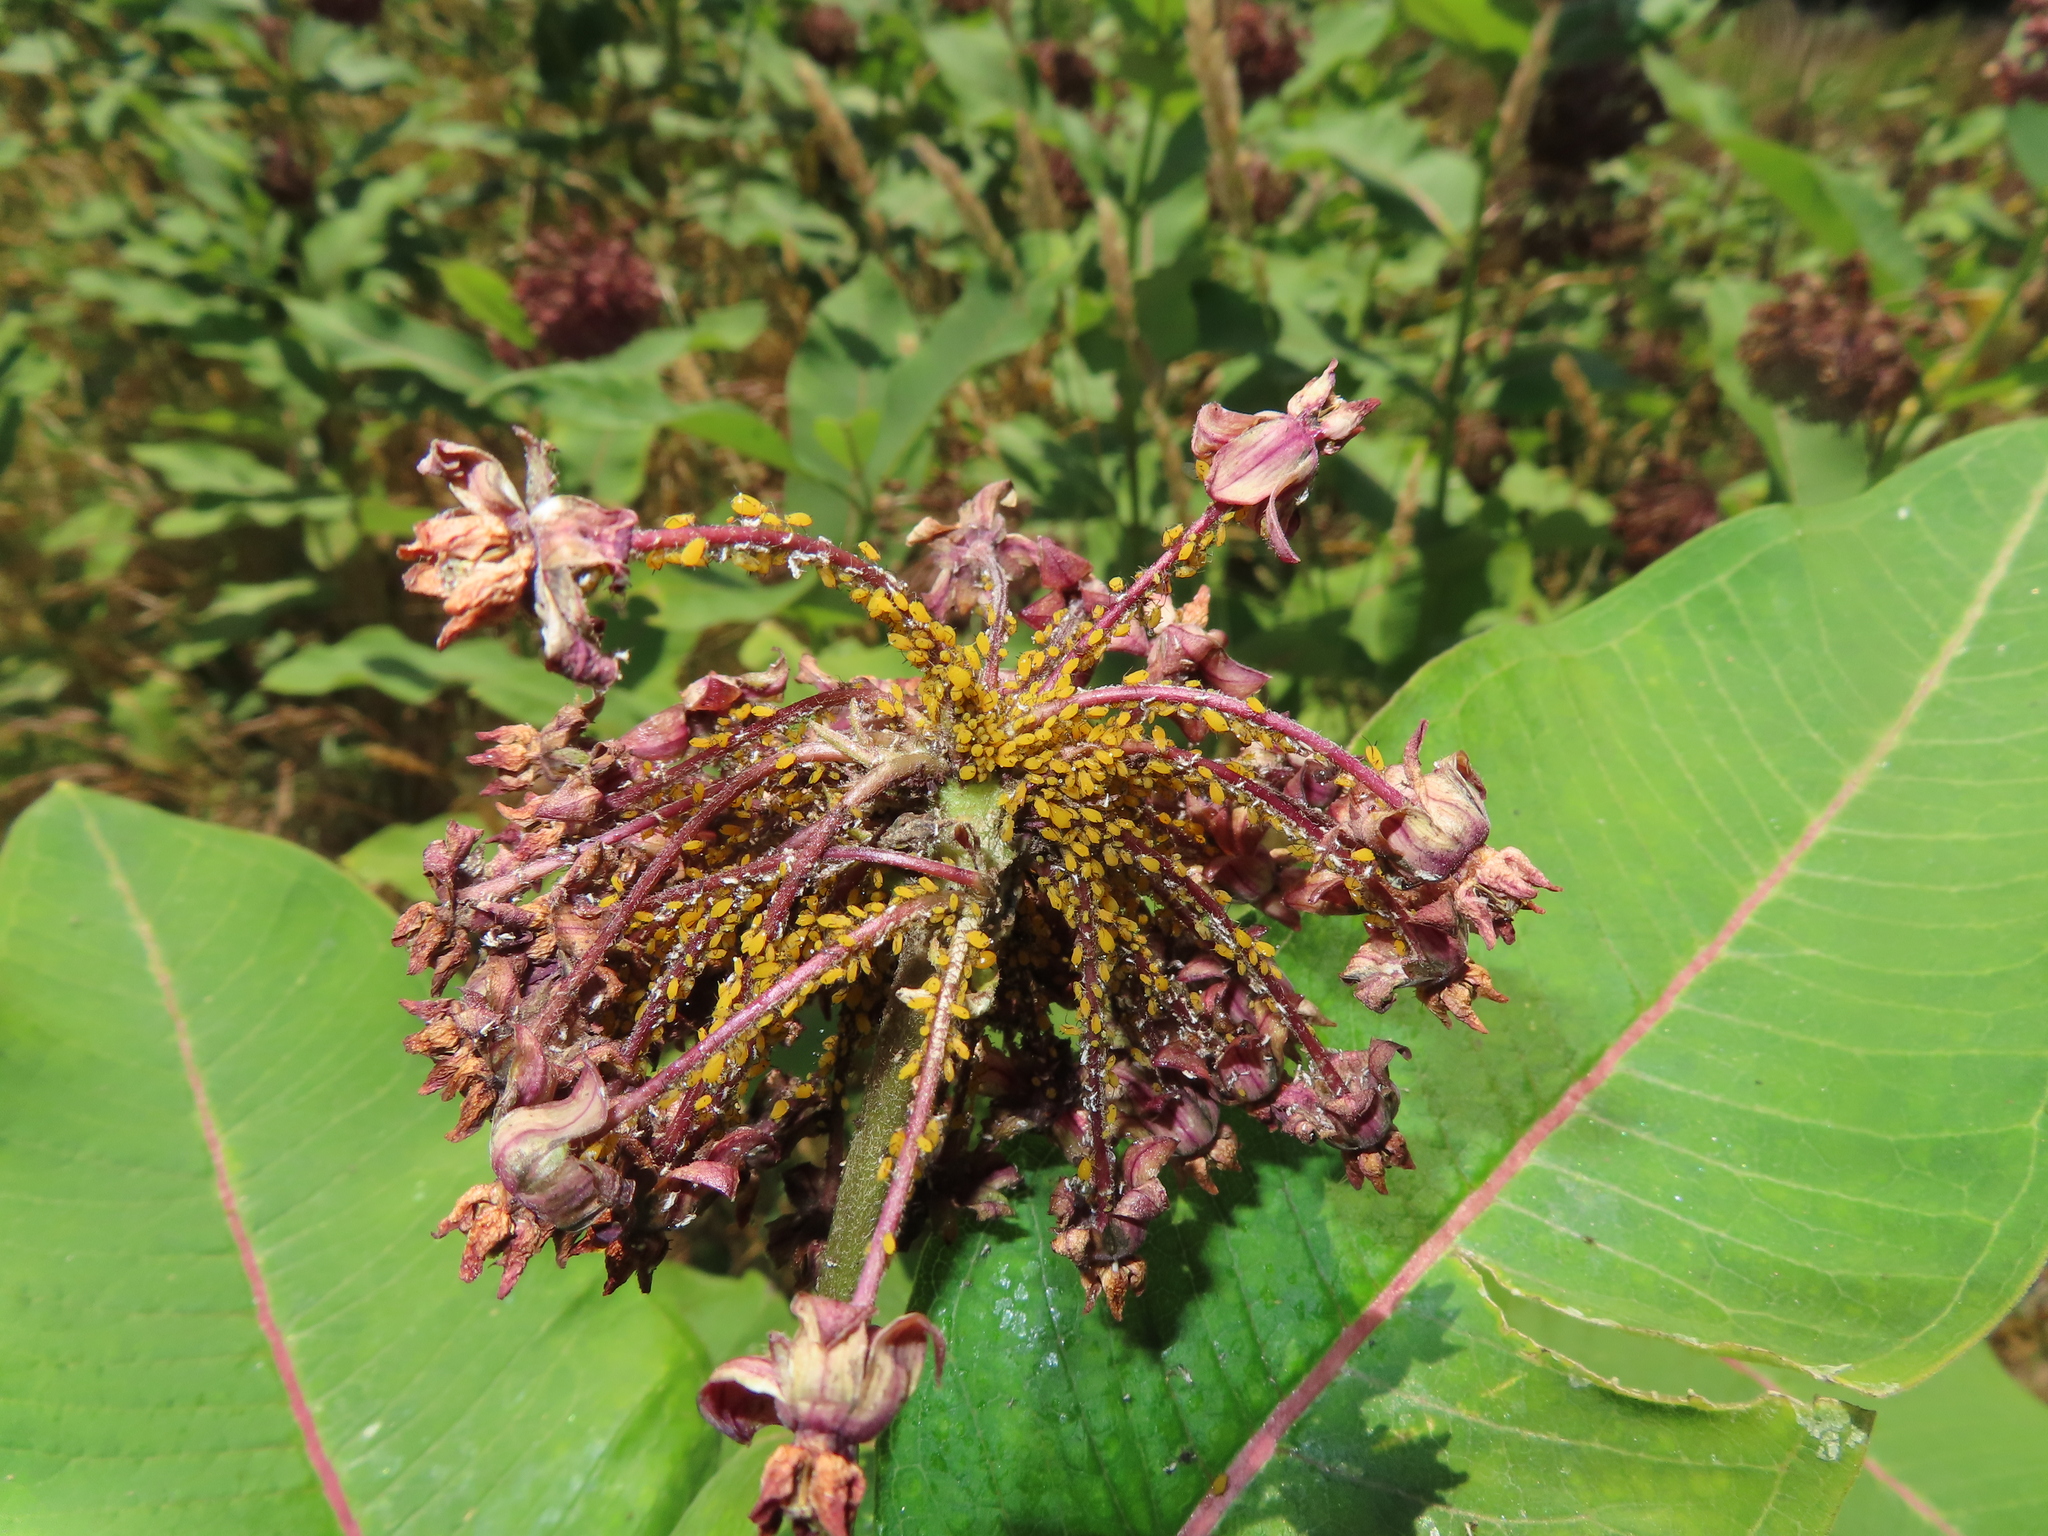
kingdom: Animalia
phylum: Arthropoda
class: Insecta
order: Hemiptera
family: Aphididae
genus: Aphis
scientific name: Aphis nerii
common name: Oleander aphid
